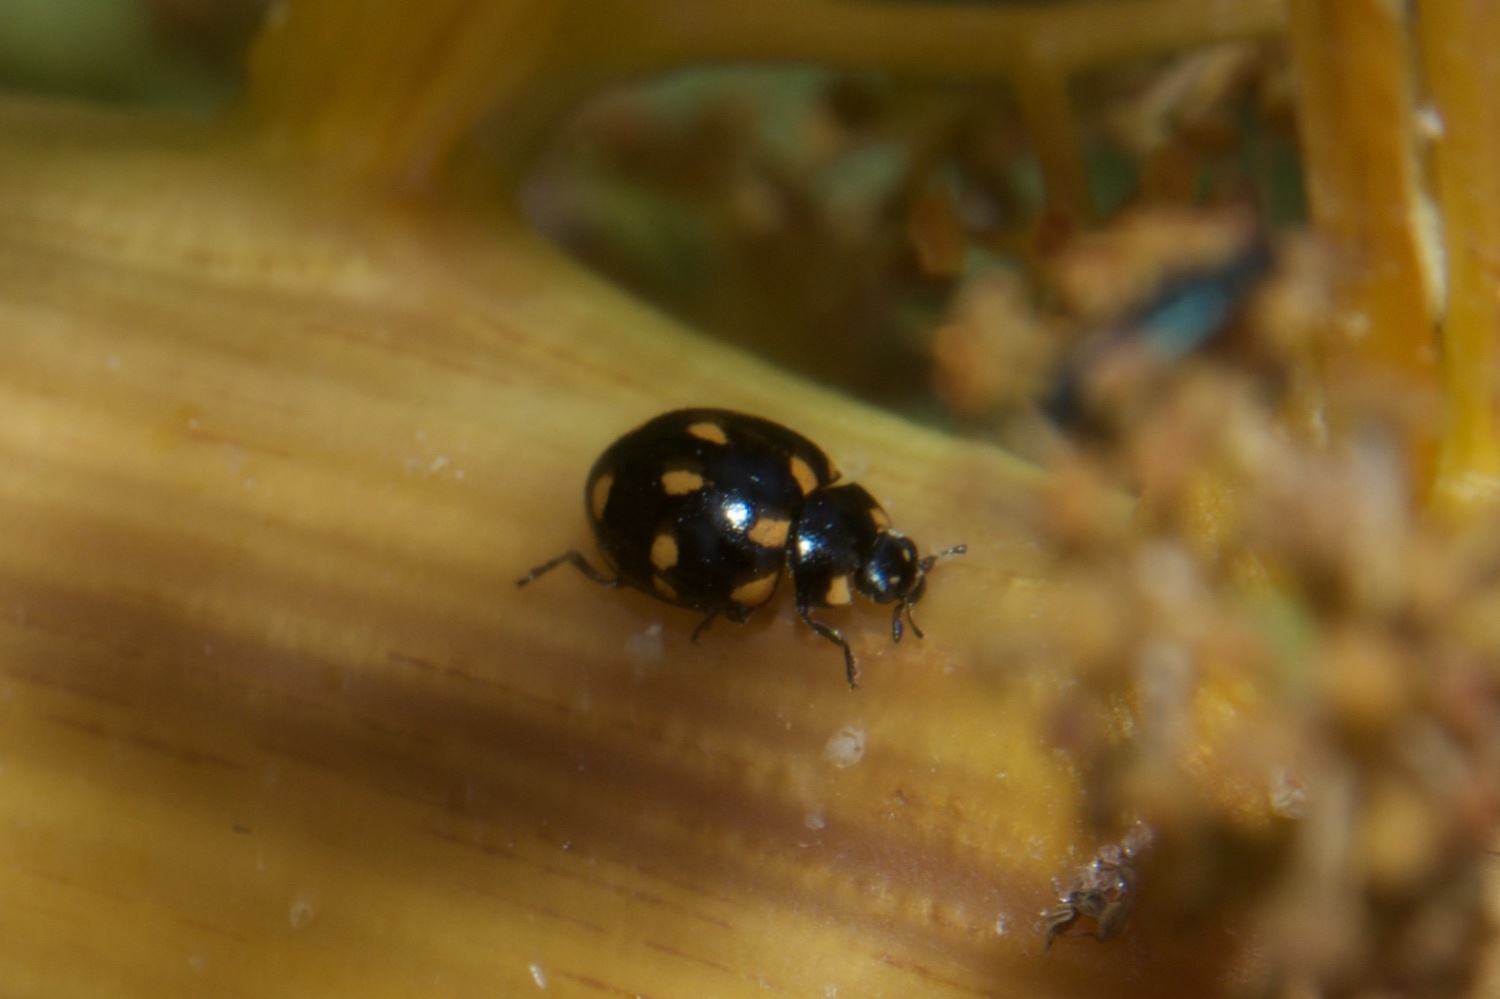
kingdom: Animalia
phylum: Arthropoda
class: Insecta
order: Coleoptera
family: Coccinellidae
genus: Coccinella
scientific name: Coccinella leonina
